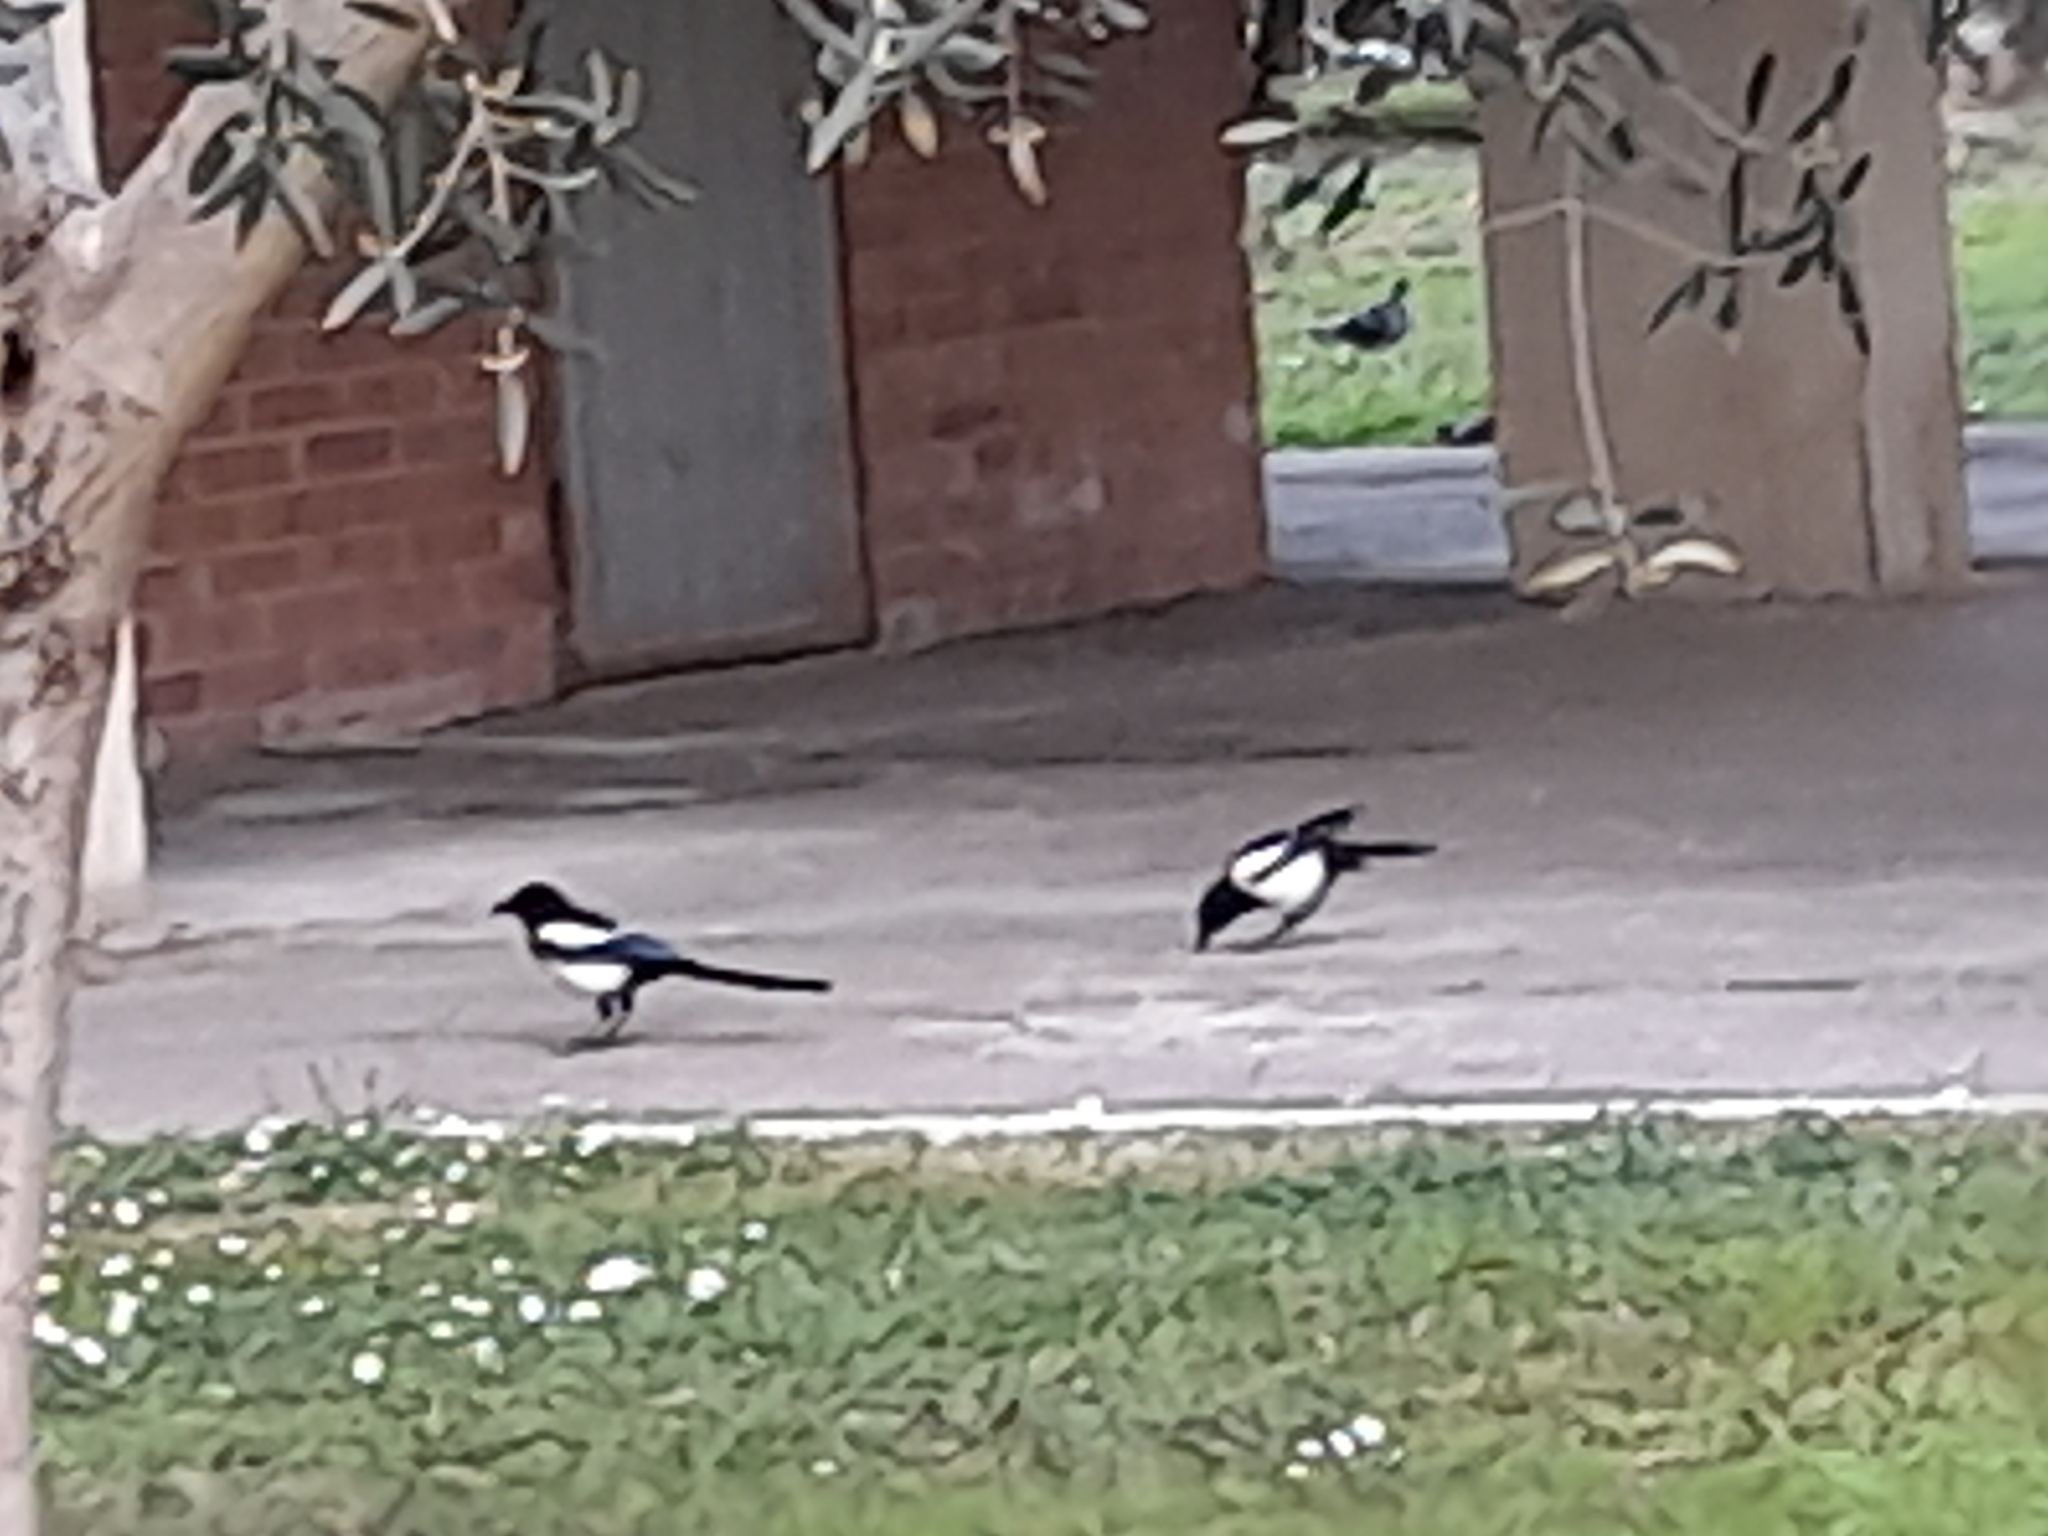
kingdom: Animalia
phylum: Chordata
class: Aves
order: Passeriformes
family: Corvidae
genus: Pica
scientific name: Pica pica
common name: Eurasian magpie
